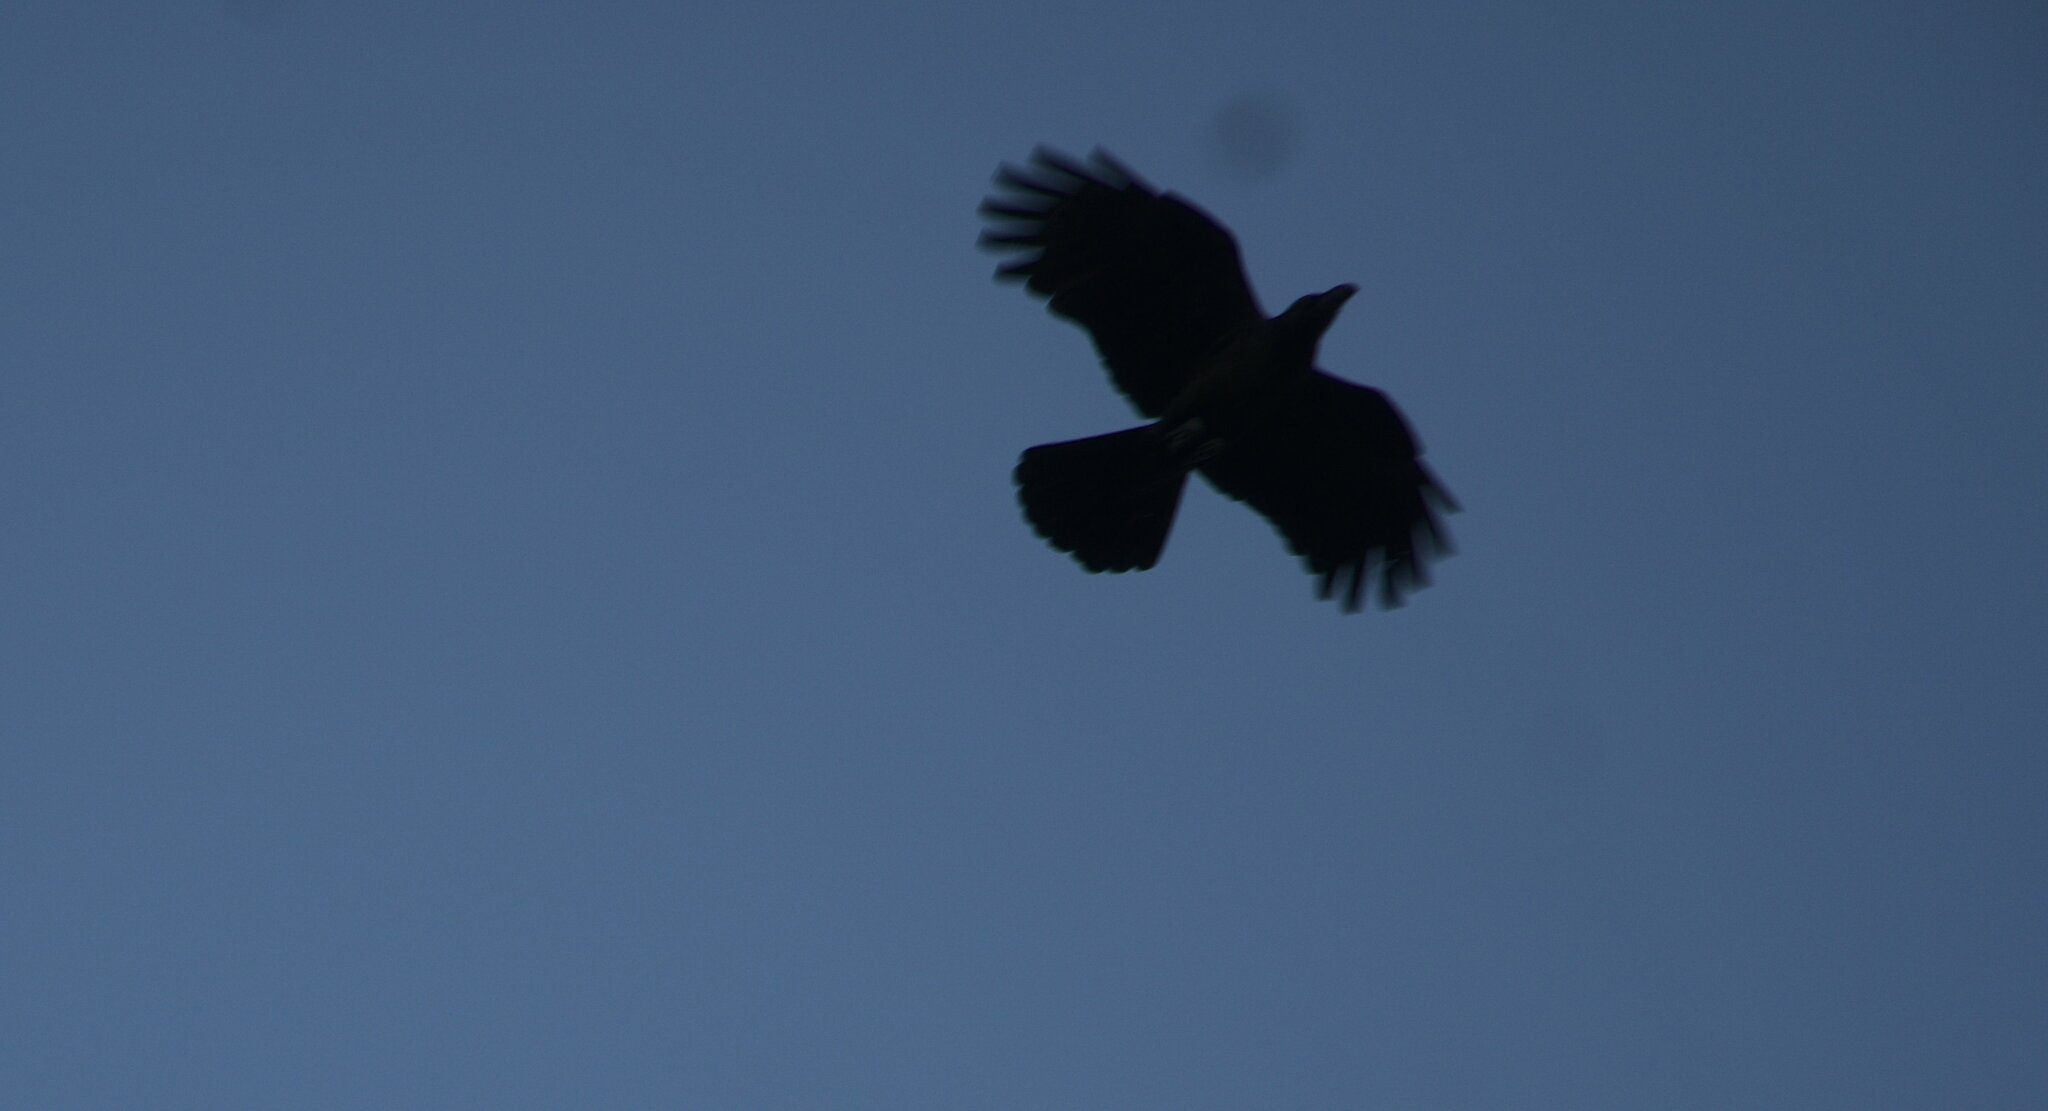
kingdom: Animalia
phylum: Chordata
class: Aves
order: Passeriformes
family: Corvidae
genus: Corvus
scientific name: Corvus macrorhynchos
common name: Large-billed crow
